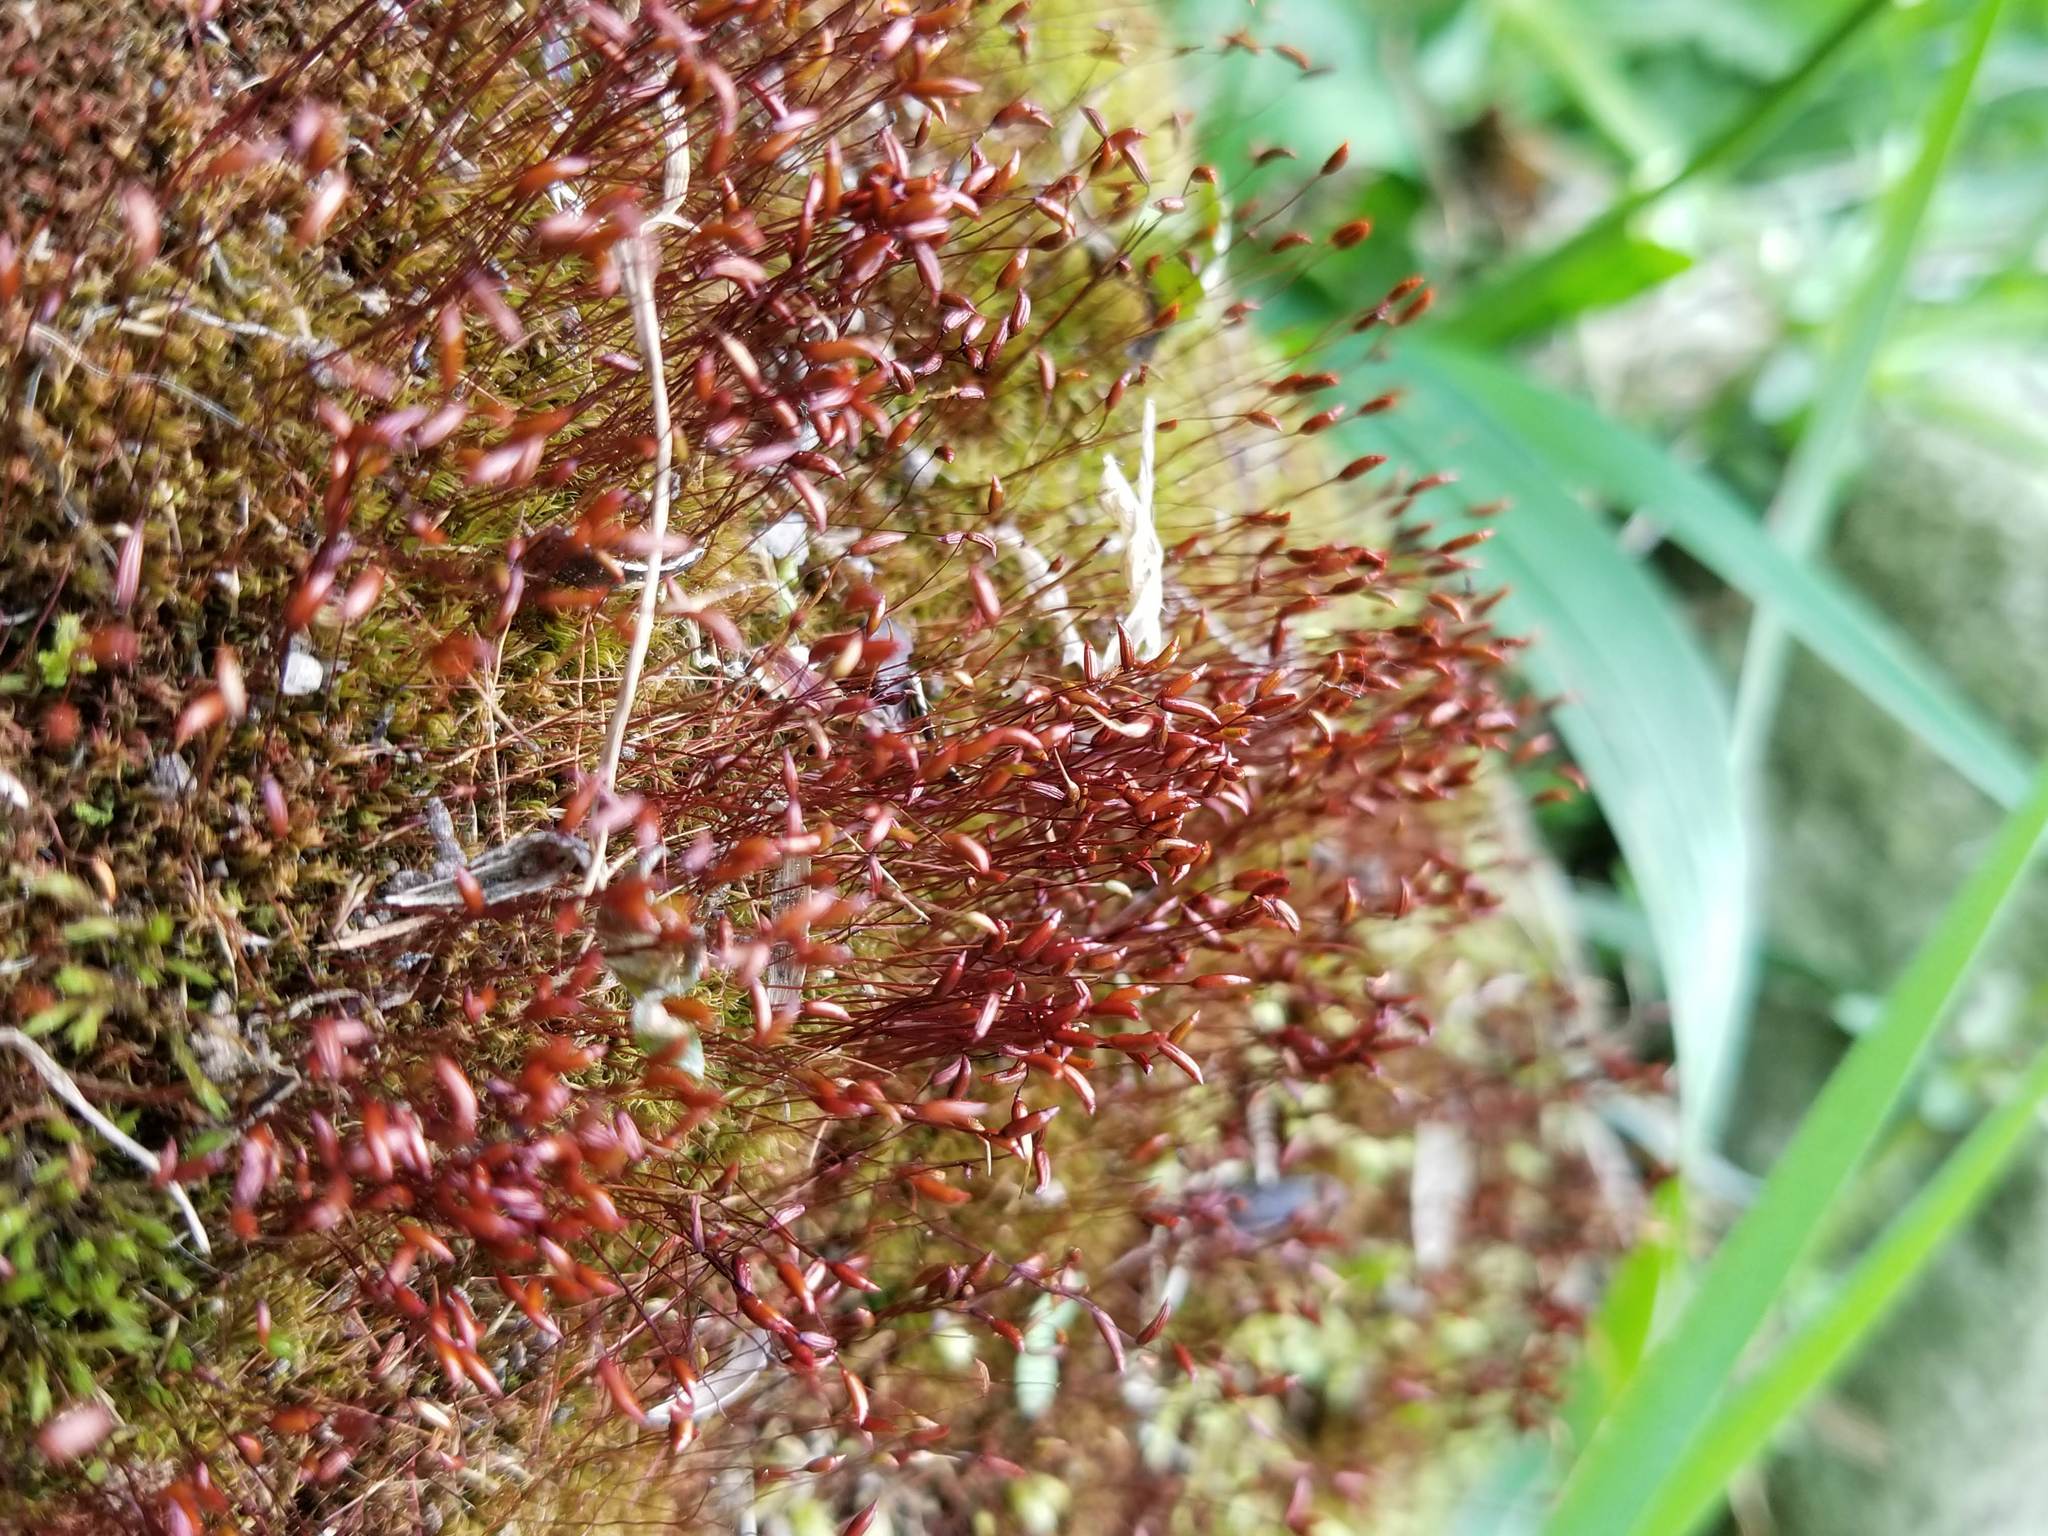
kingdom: Plantae
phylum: Bryophyta
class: Bryopsida
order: Dicranales
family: Ditrichaceae
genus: Ceratodon
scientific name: Ceratodon purpureus
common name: Redshank
